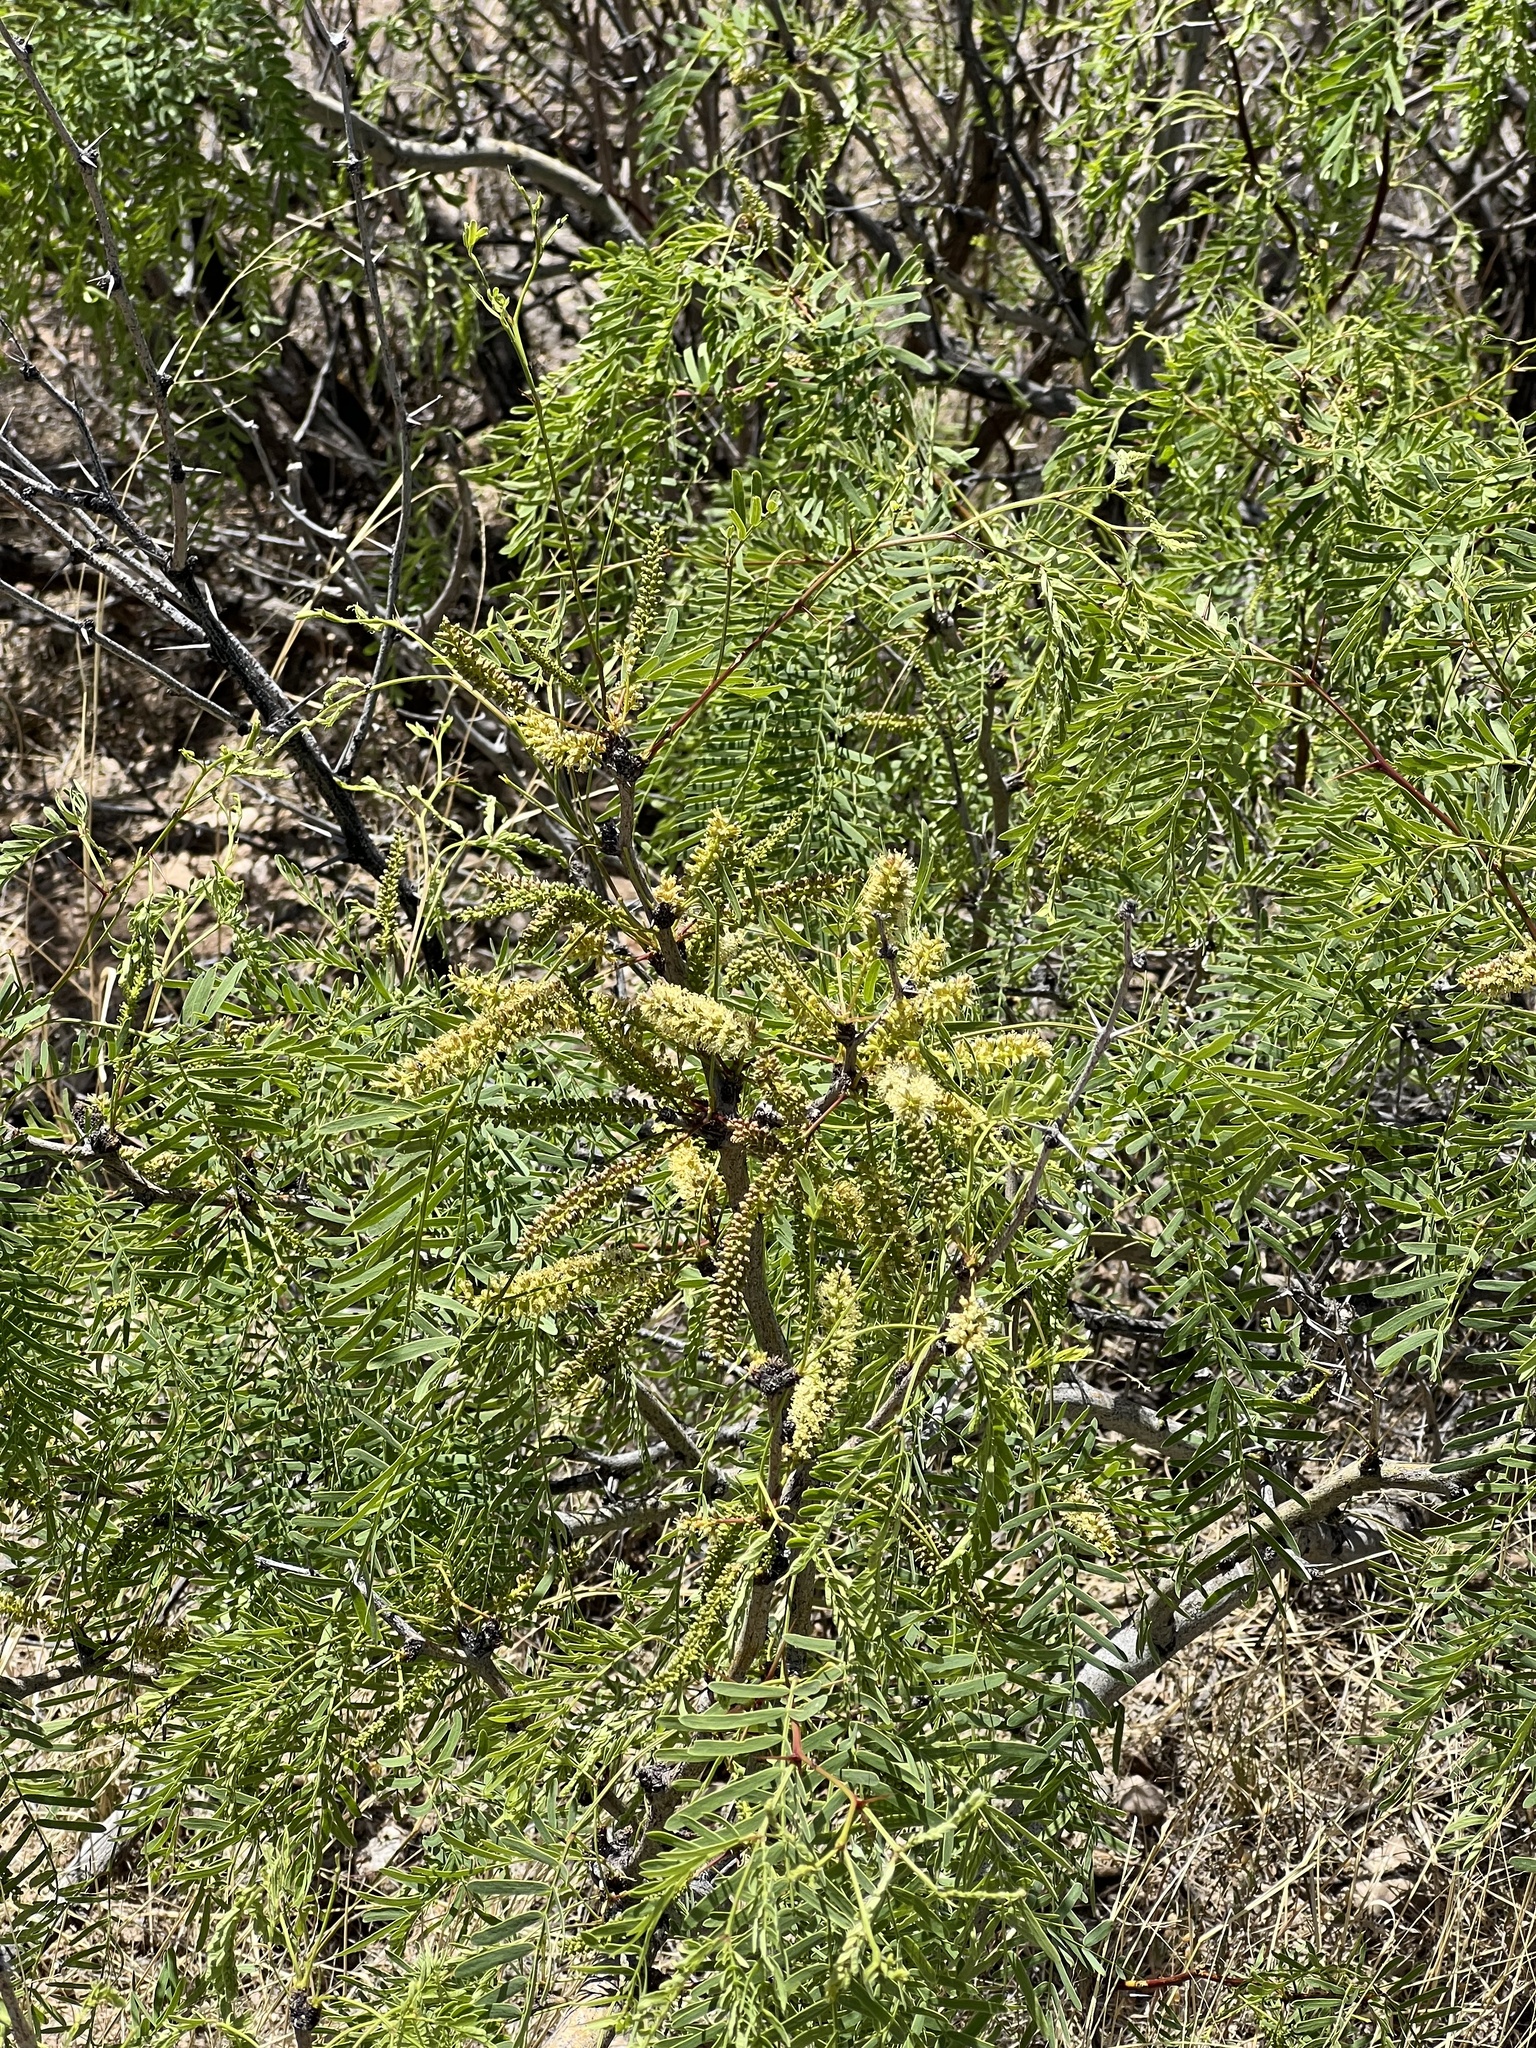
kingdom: Plantae
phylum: Tracheophyta
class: Magnoliopsida
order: Fabales
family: Fabaceae
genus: Prosopis
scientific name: Prosopis glandulosa
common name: Honey mesquite
